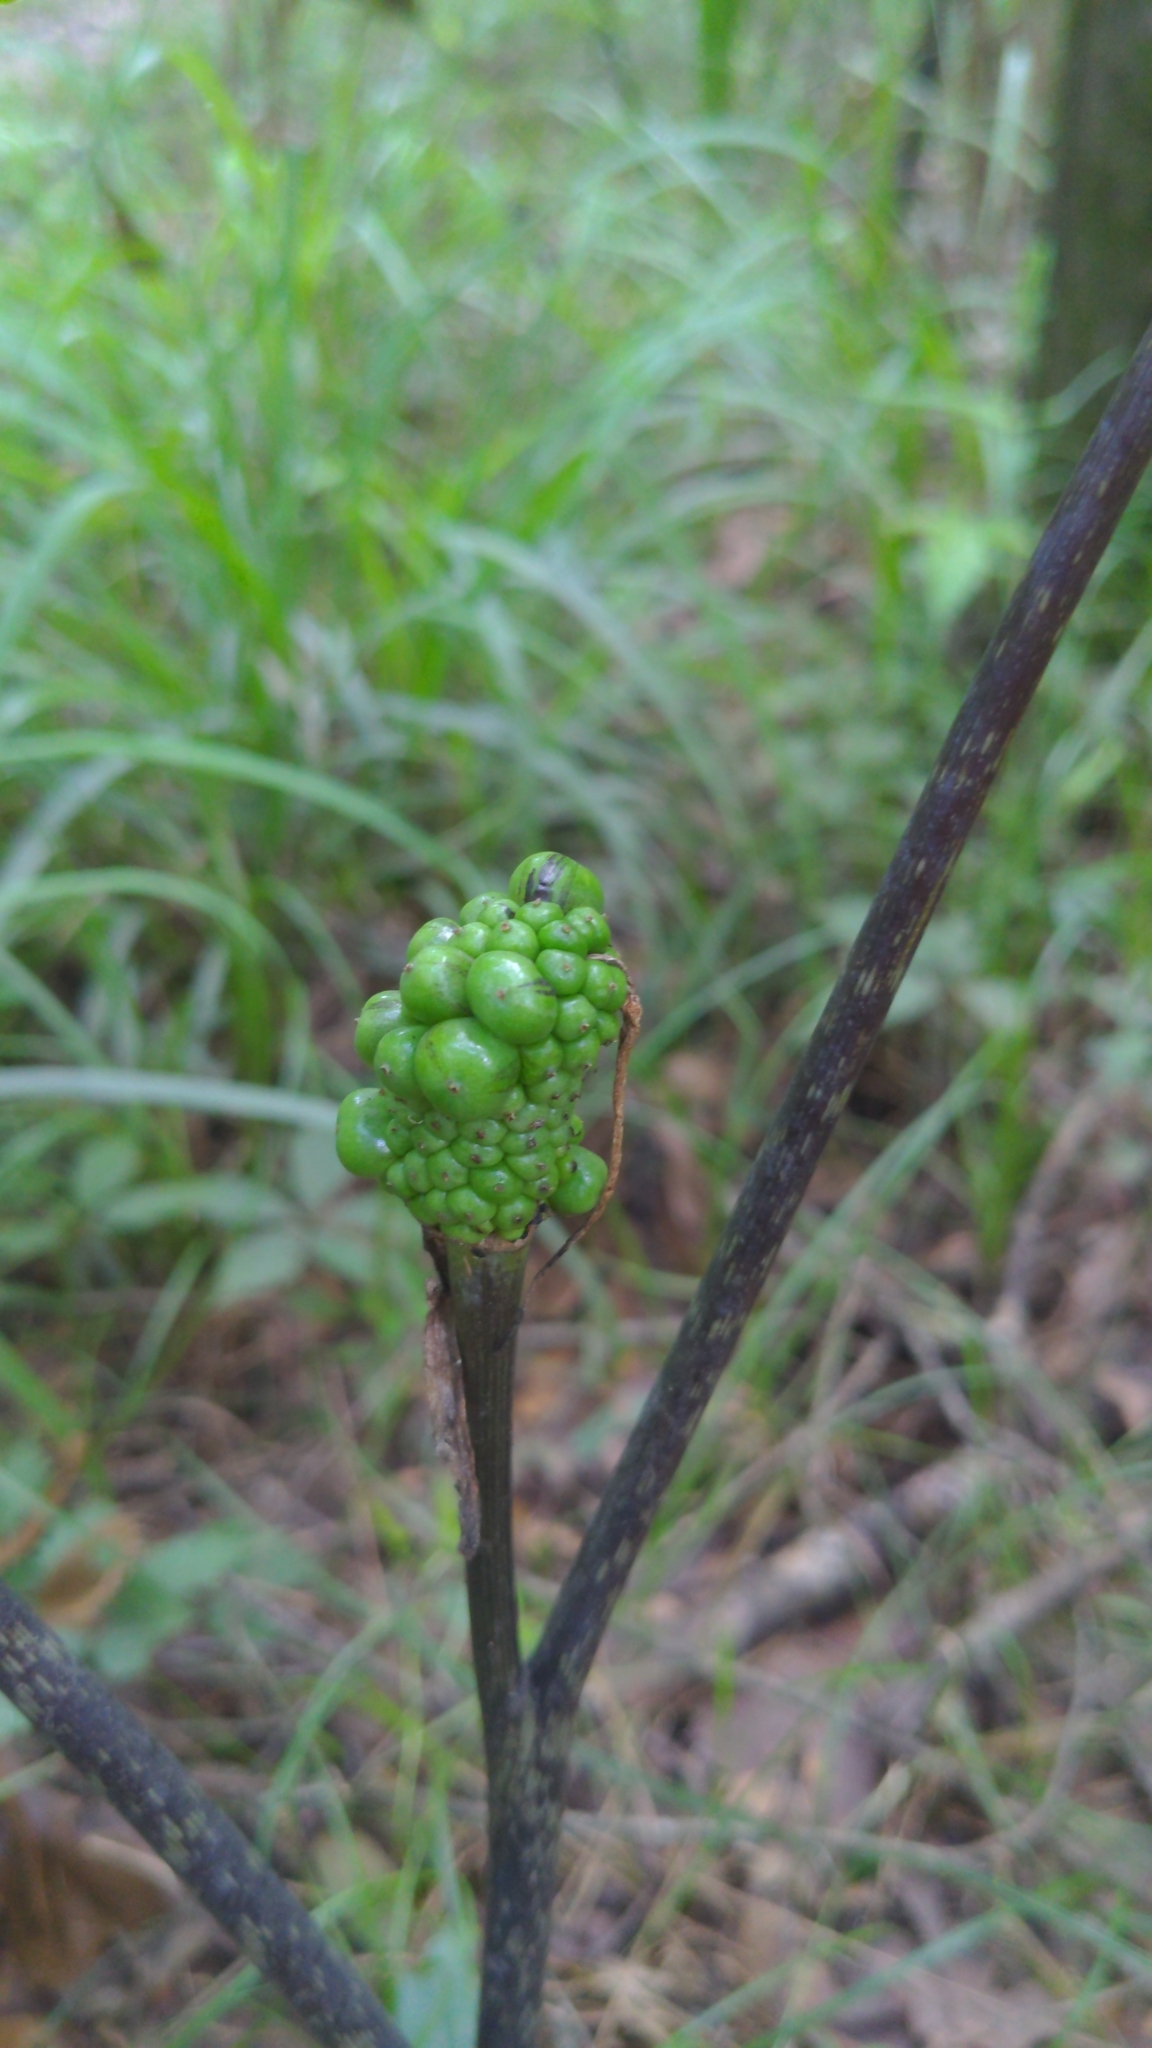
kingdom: Plantae
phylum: Tracheophyta
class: Liliopsida
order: Alismatales
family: Araceae
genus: Arisaema
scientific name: Arisaema quinatum
